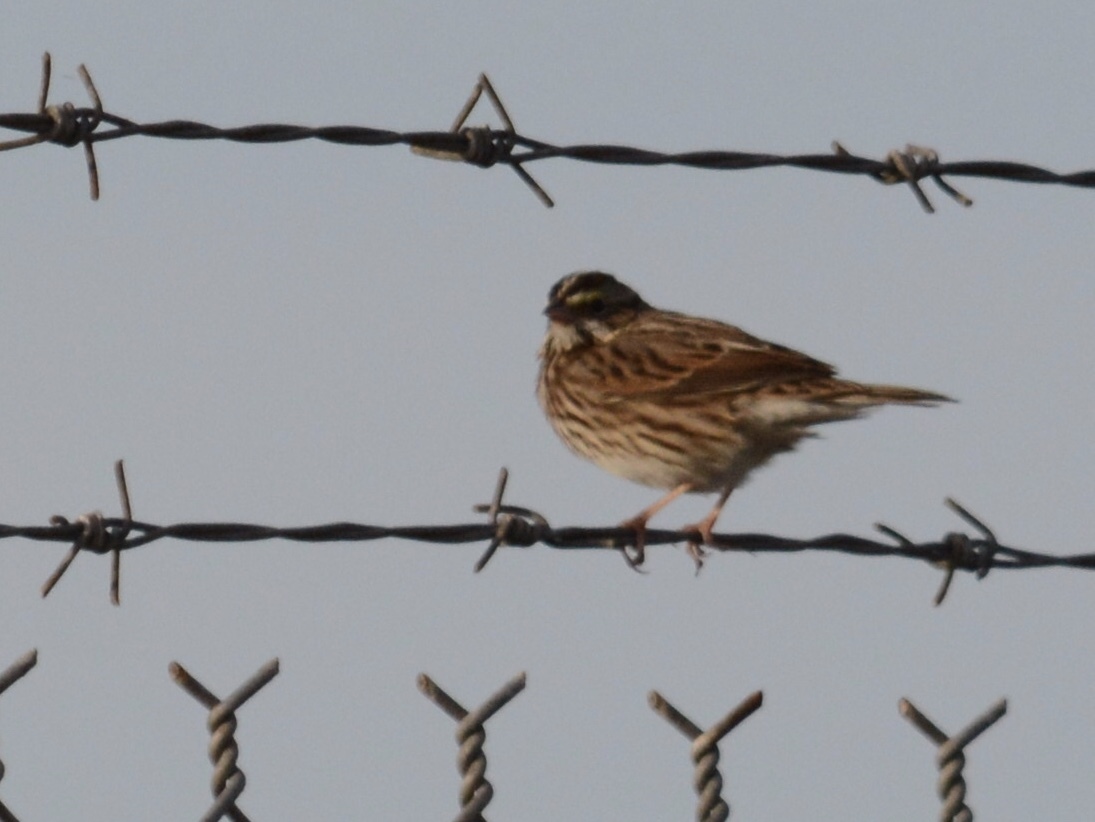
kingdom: Animalia
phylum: Chordata
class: Aves
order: Passeriformes
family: Passerellidae
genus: Passerculus
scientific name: Passerculus sandwichensis
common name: Savannah sparrow
